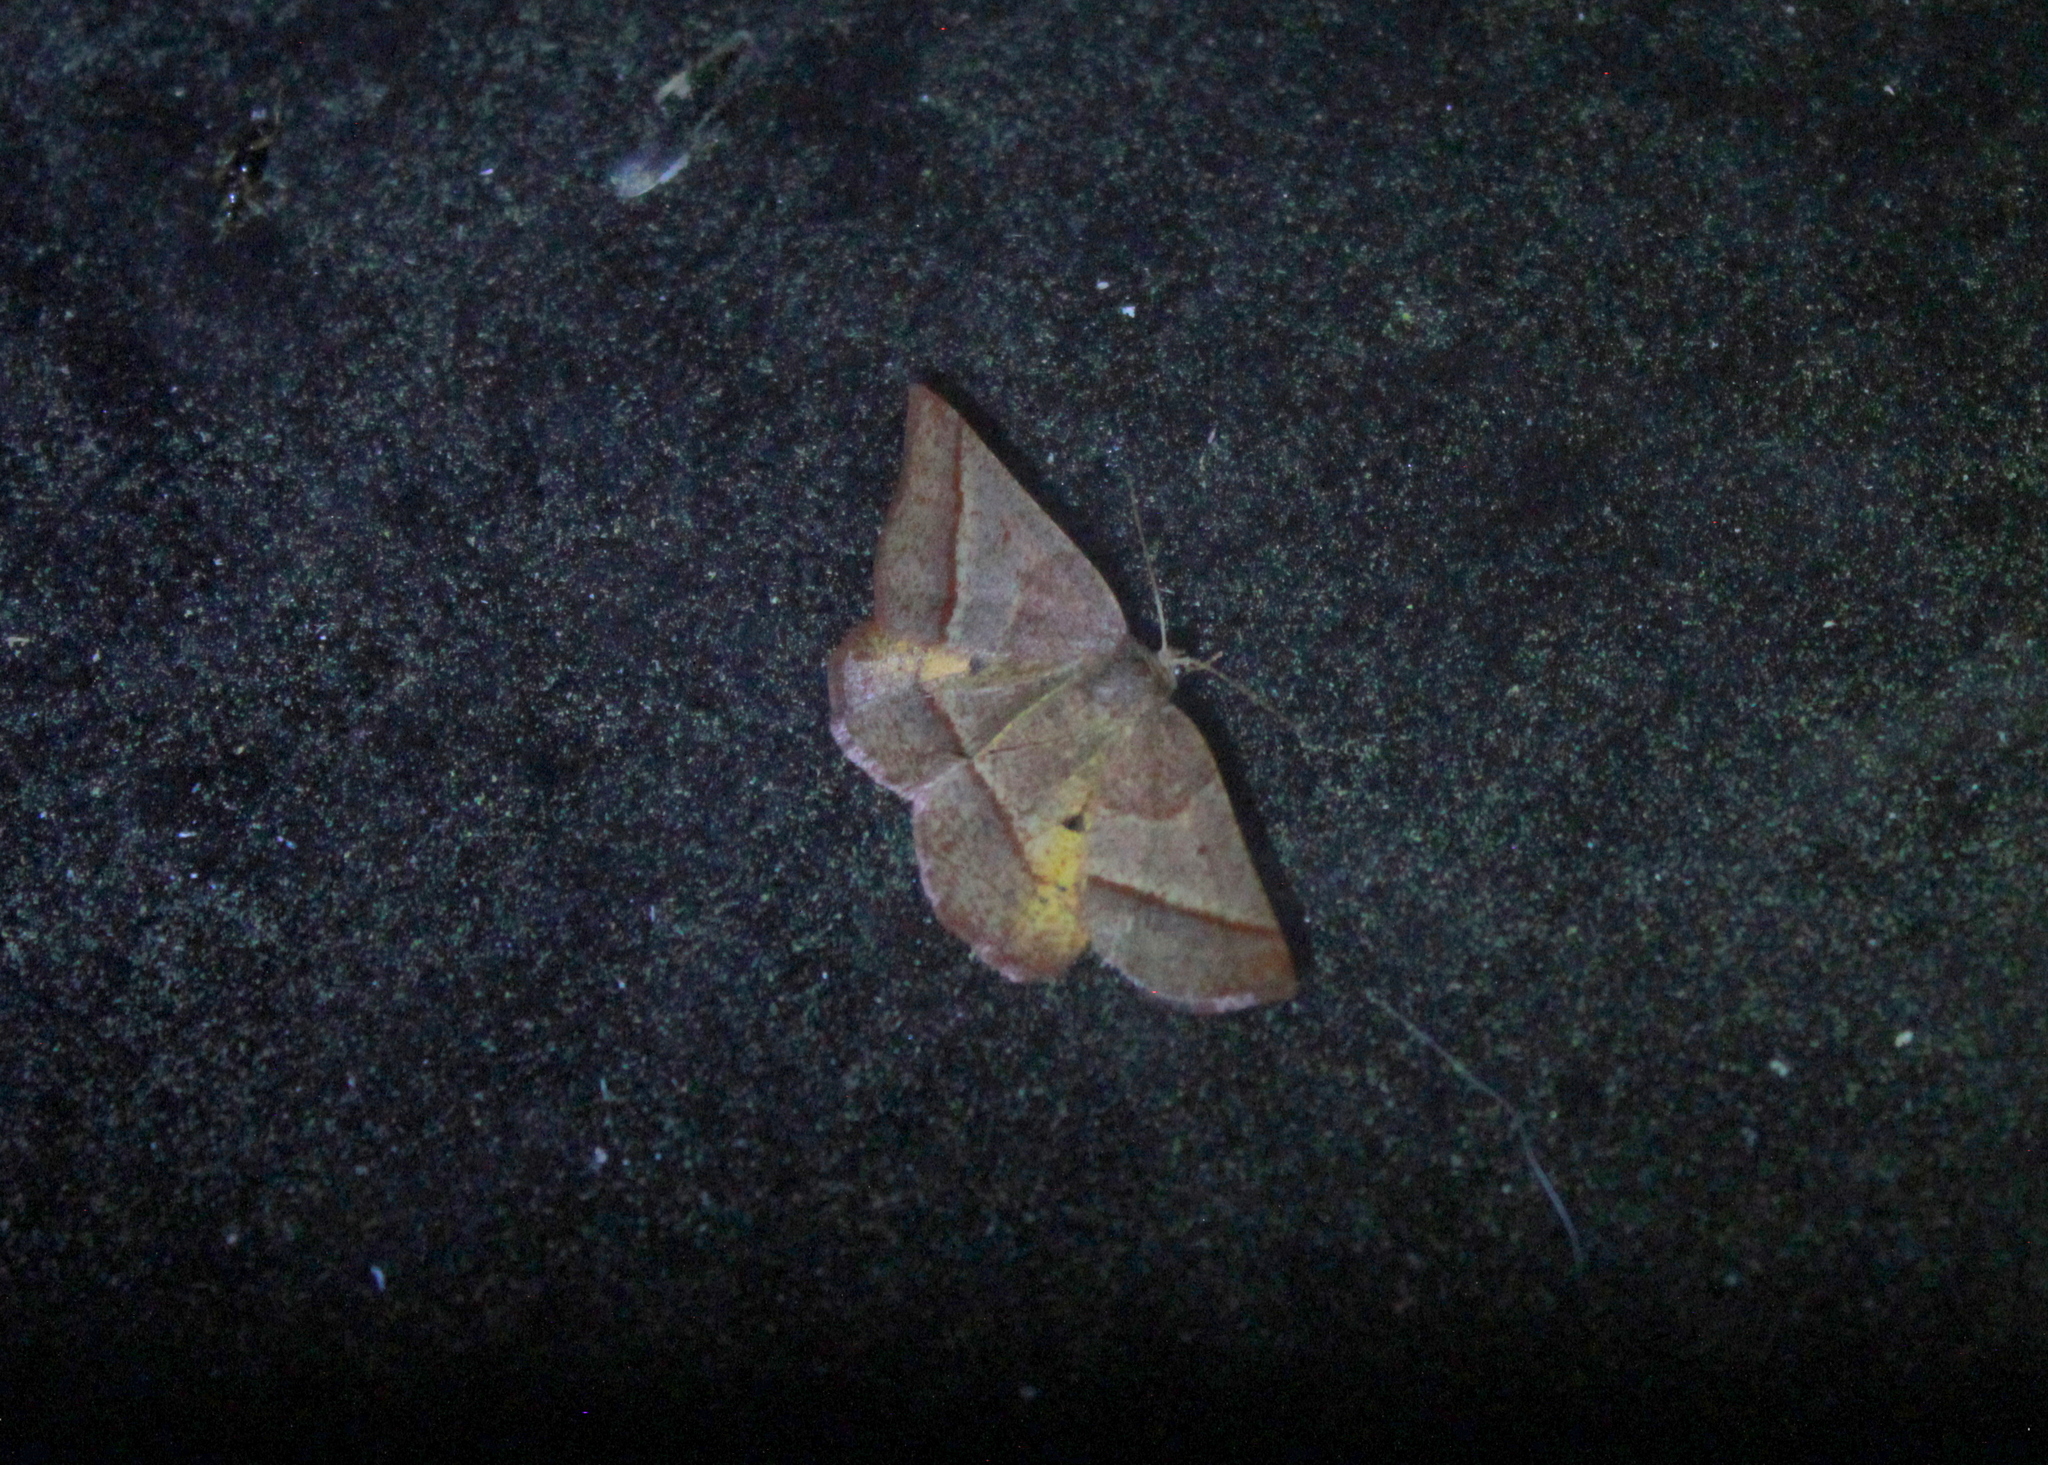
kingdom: Animalia
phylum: Arthropoda
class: Insecta
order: Lepidoptera
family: Geometridae
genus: Metarranthis
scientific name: Metarranthis obfirmaria
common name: Yellow-washed metarranthis
